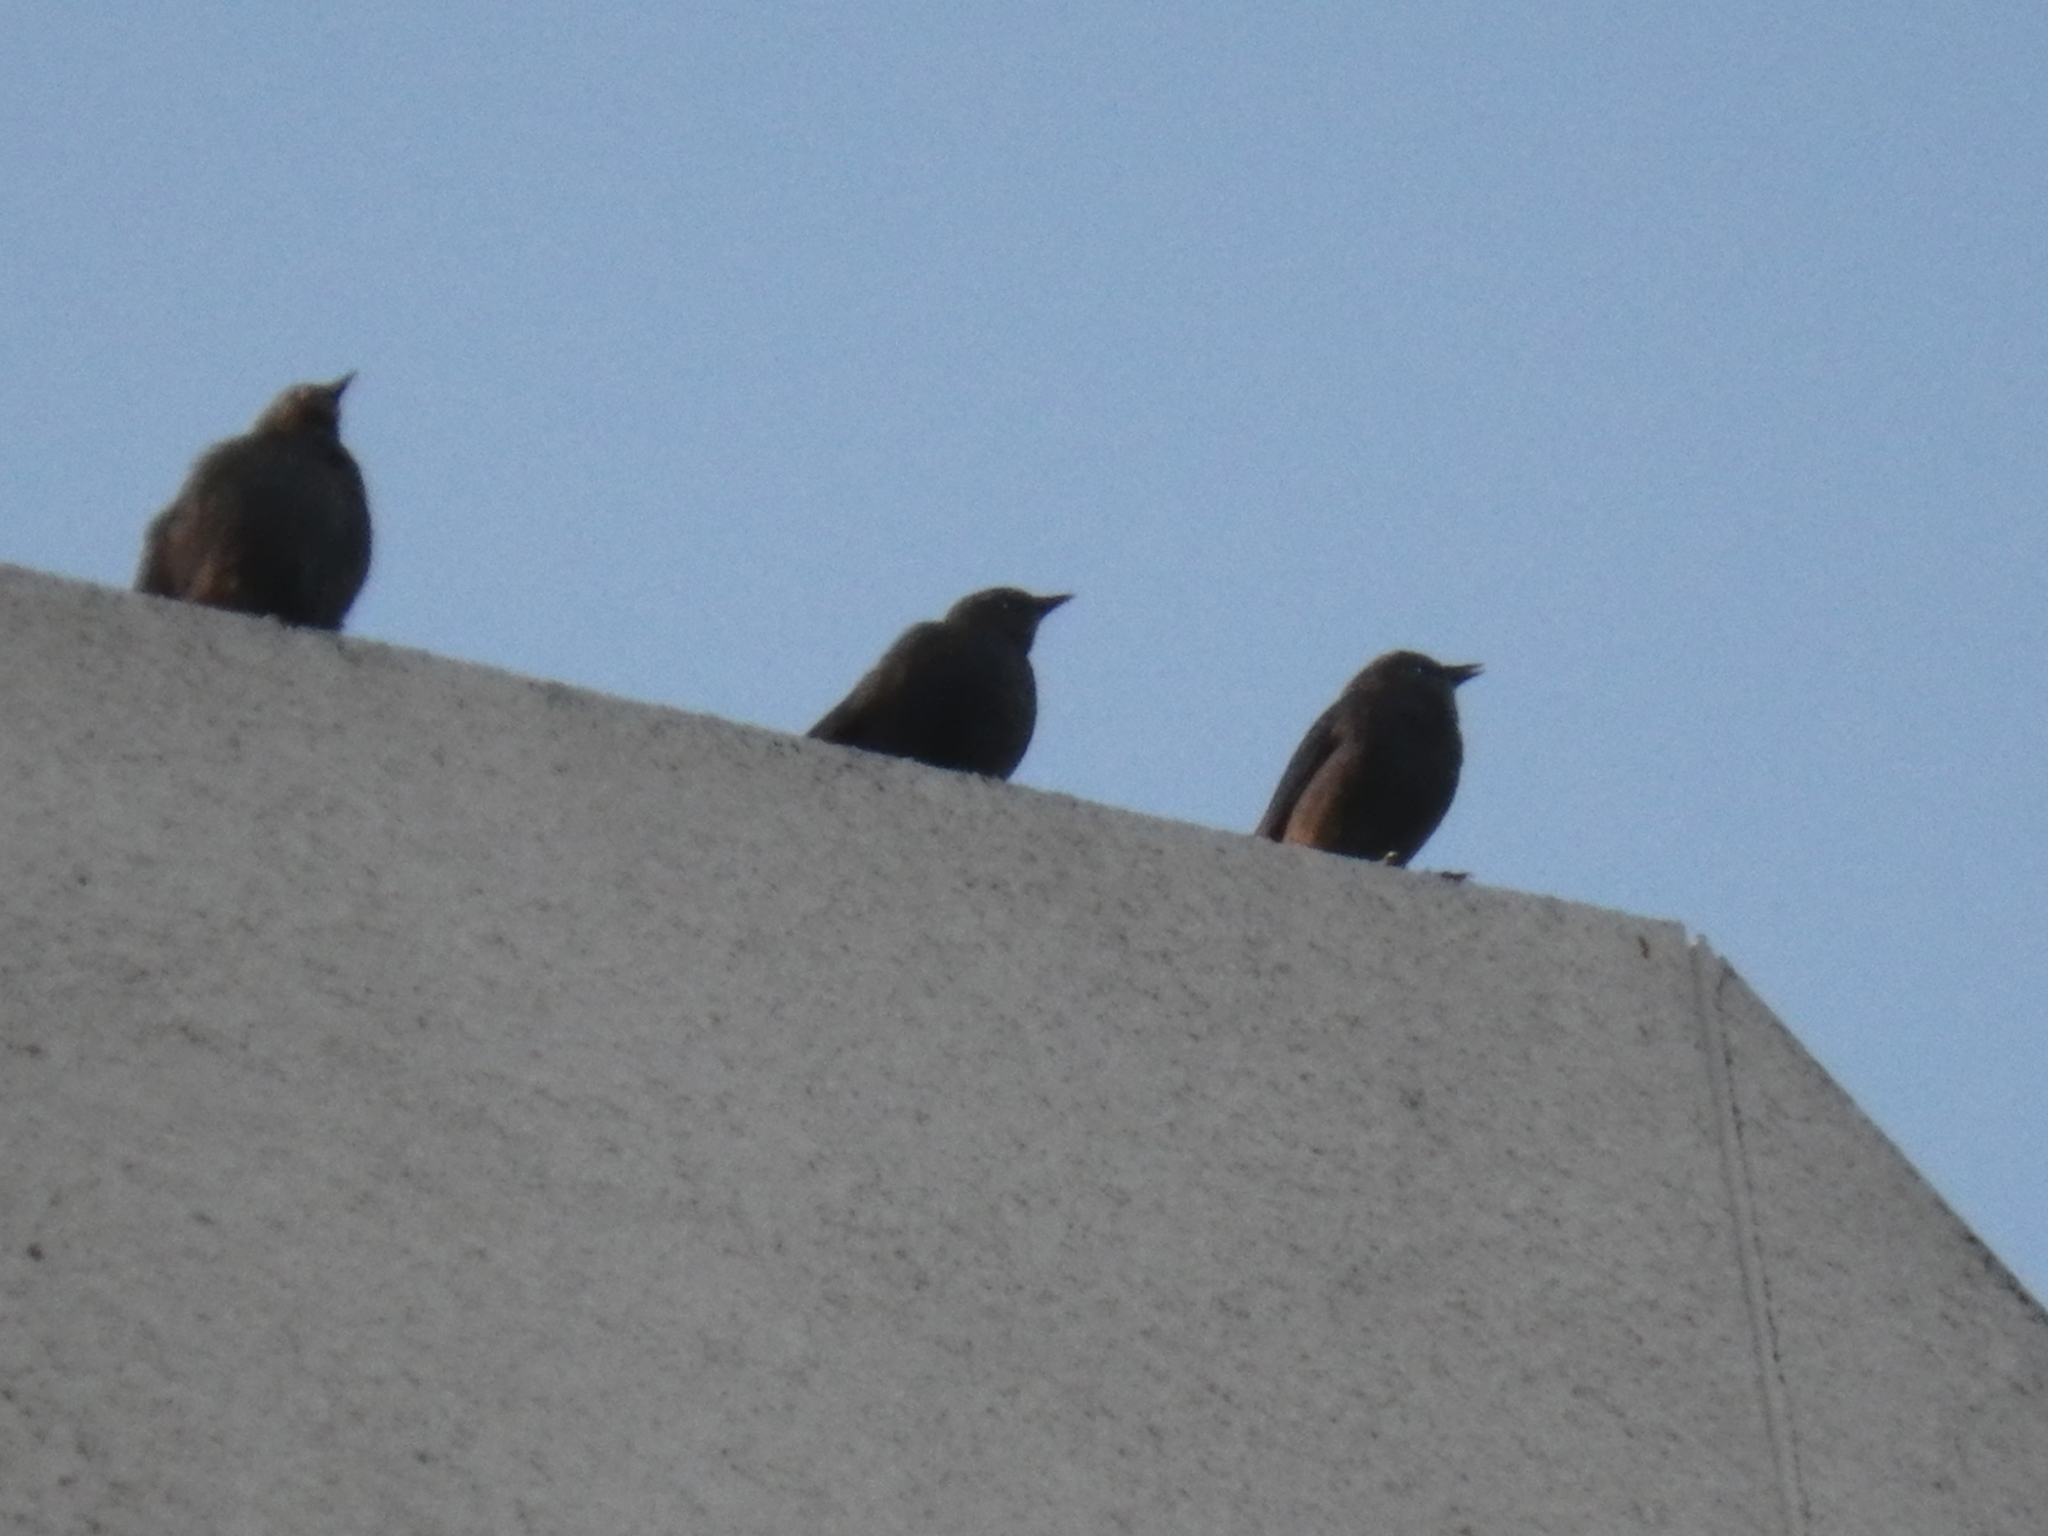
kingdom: Animalia
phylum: Chordata
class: Aves
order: Passeriformes
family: Icteridae
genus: Euphagus
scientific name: Euphagus cyanocephalus
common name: Brewer's blackbird
